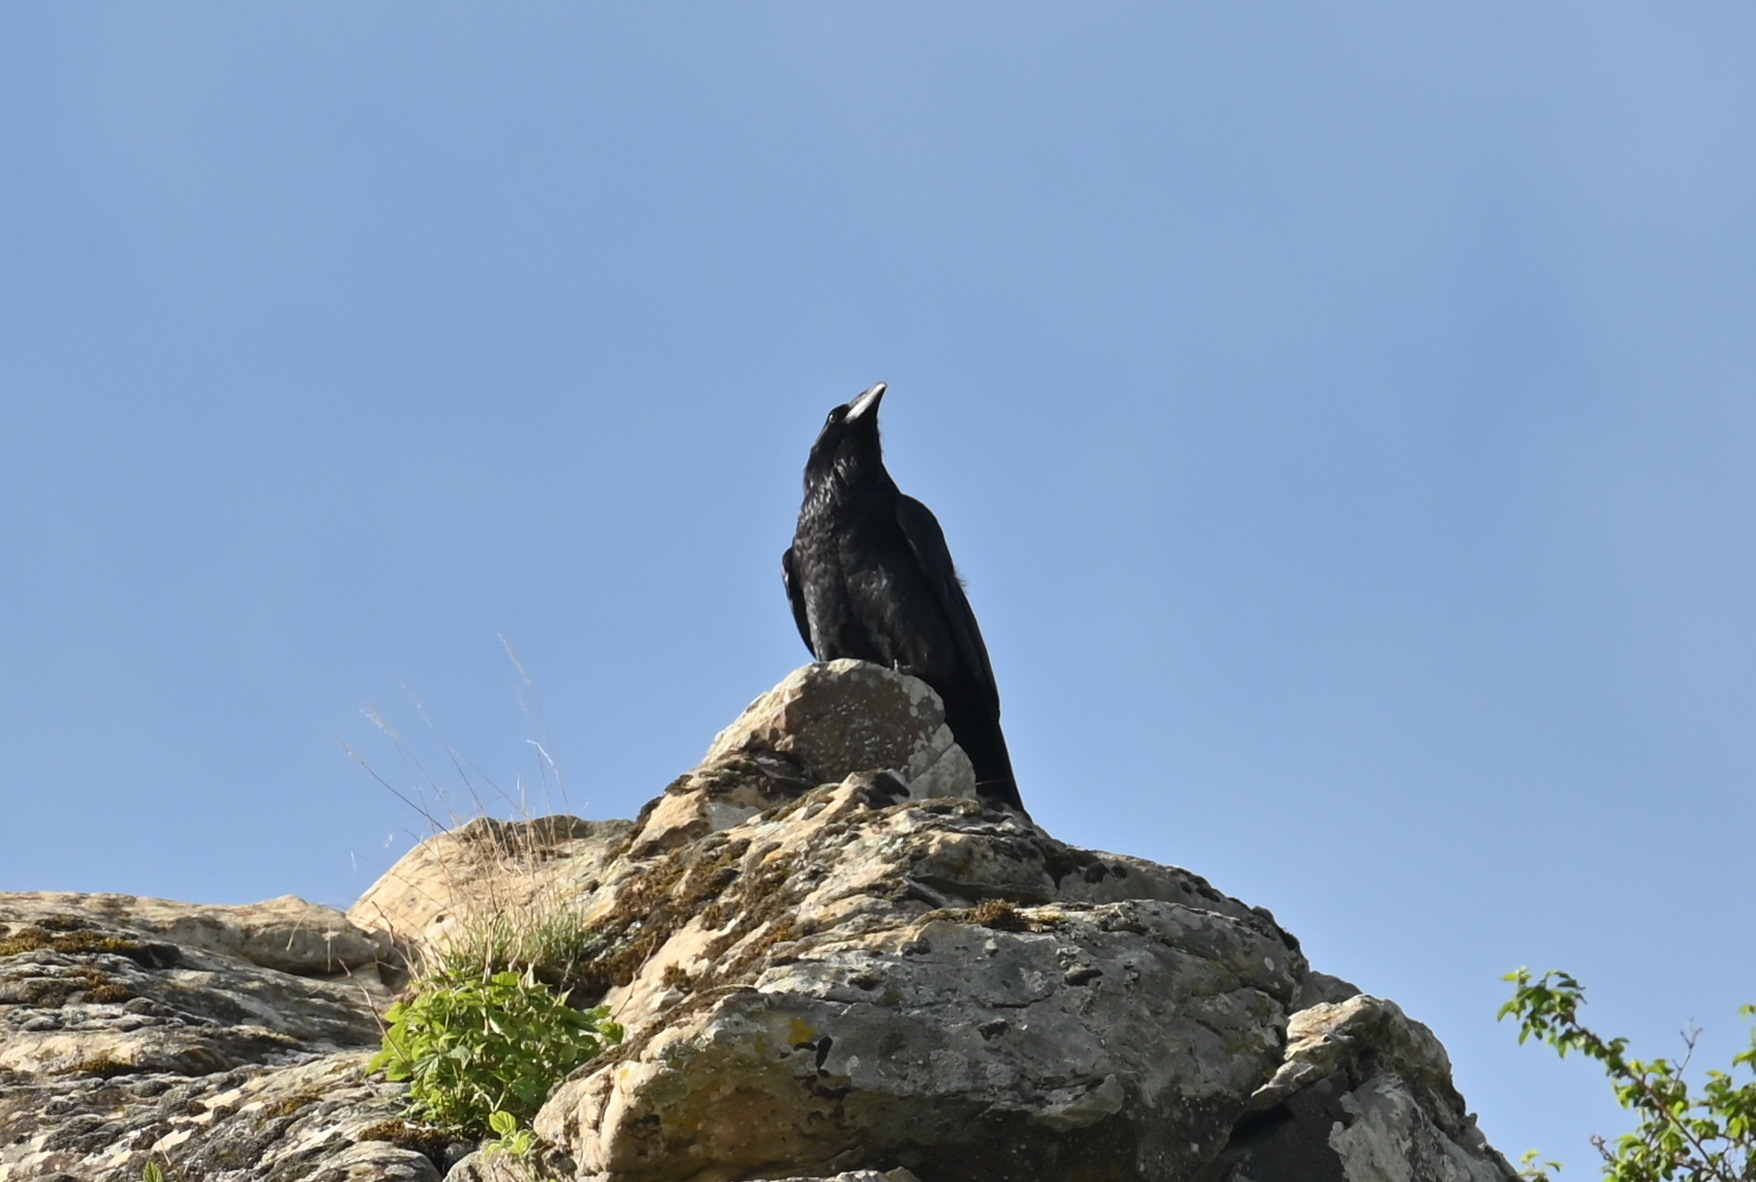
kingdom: Animalia
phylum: Chordata
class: Aves
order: Passeriformes
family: Corvidae
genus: Corvus
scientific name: Corvus corax
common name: Common raven
